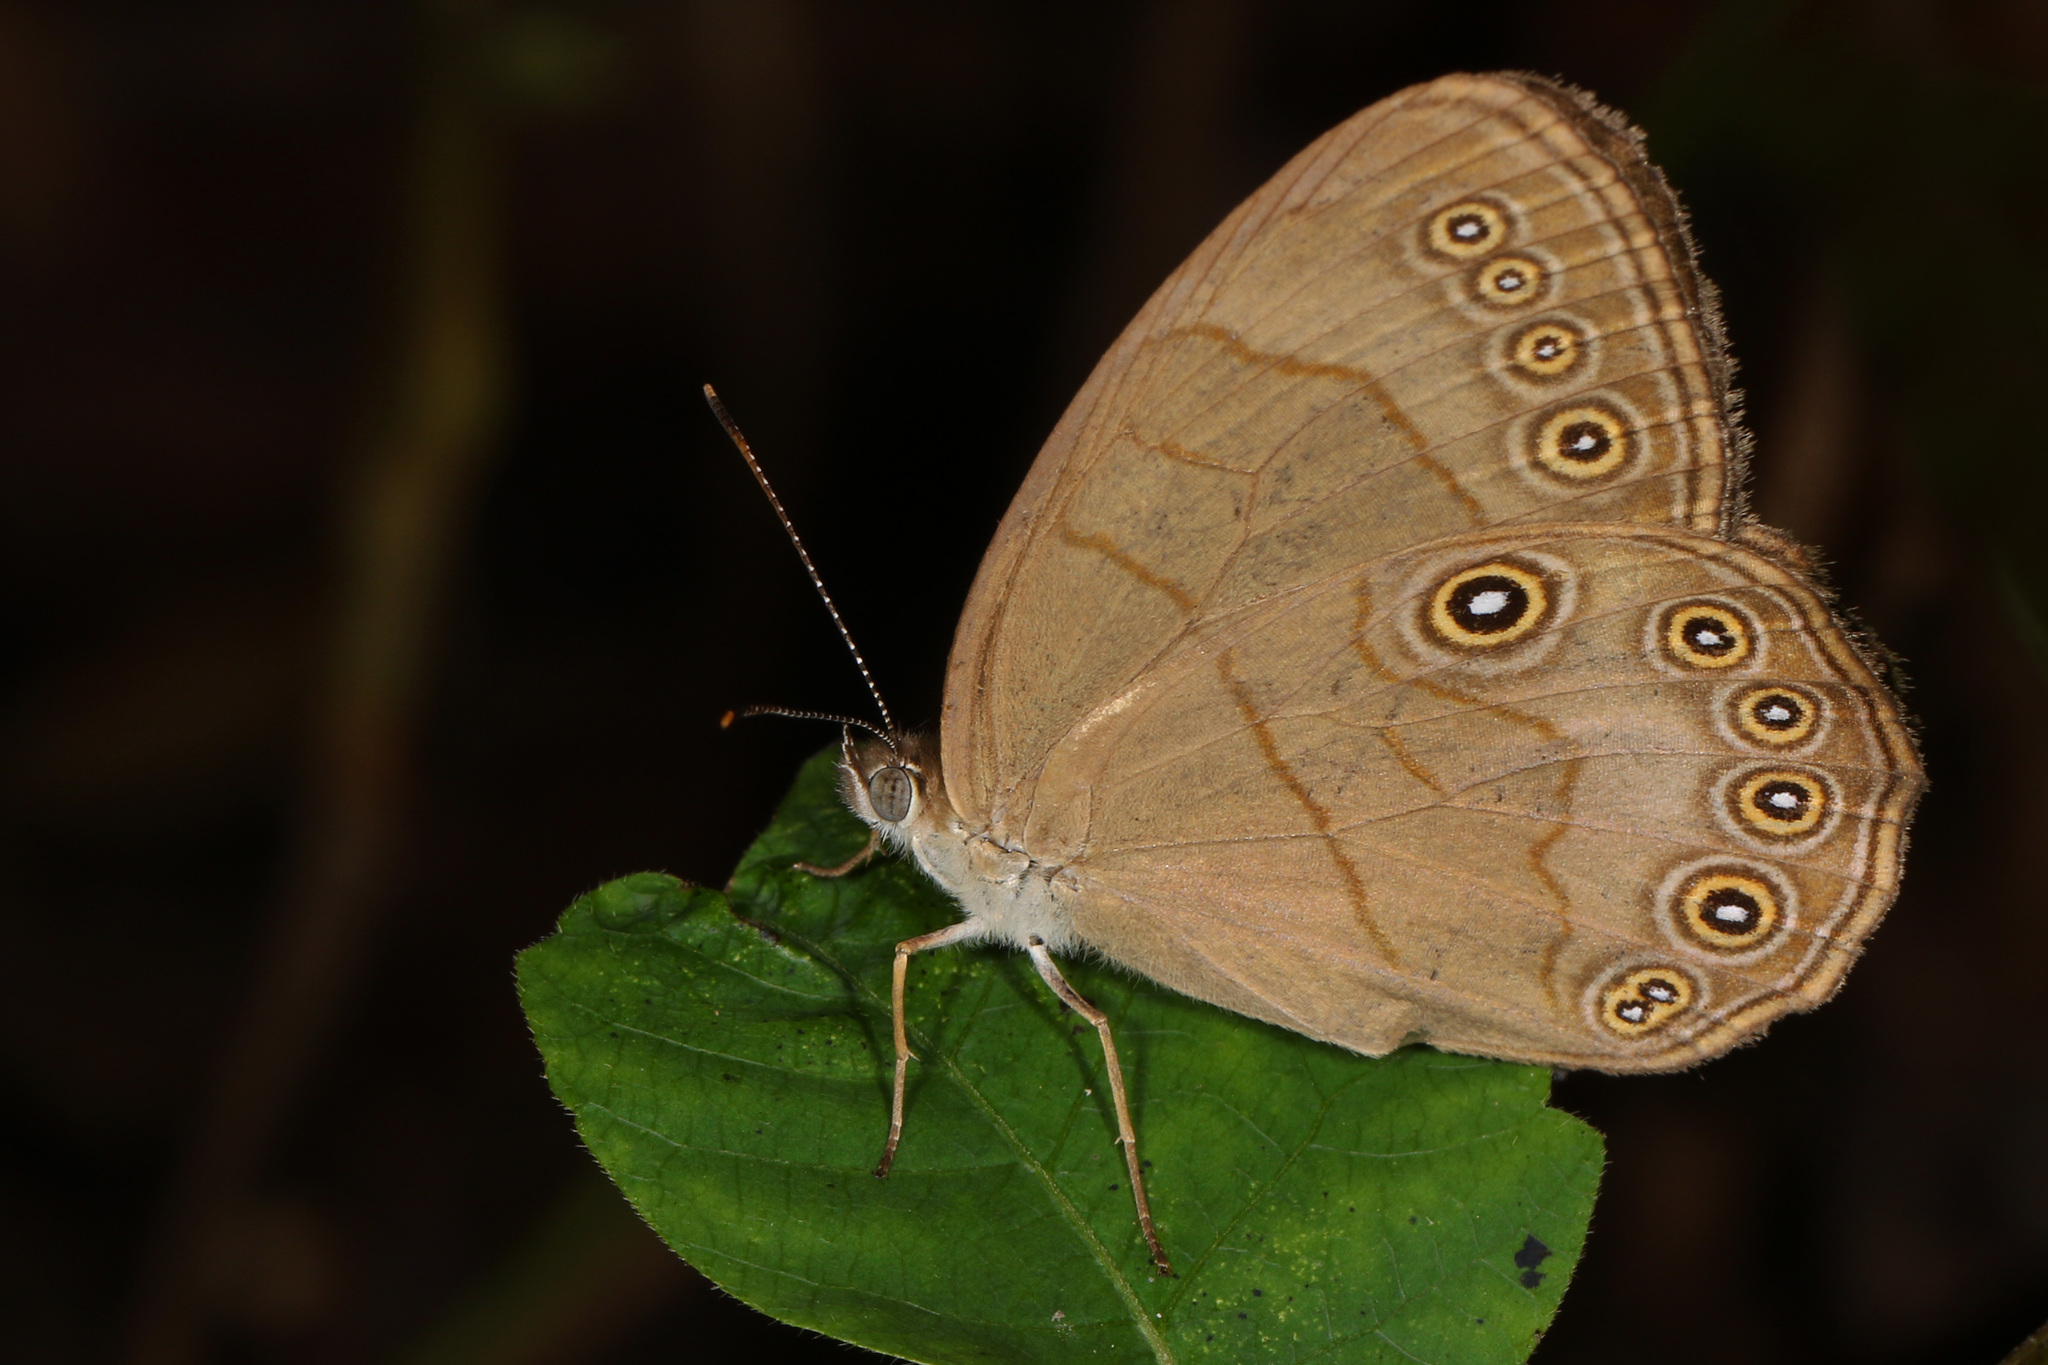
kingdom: Animalia
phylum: Arthropoda
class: Insecta
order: Lepidoptera
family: Nymphalidae
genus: Lethe
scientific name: Lethe eurydice
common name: Eyed brown
